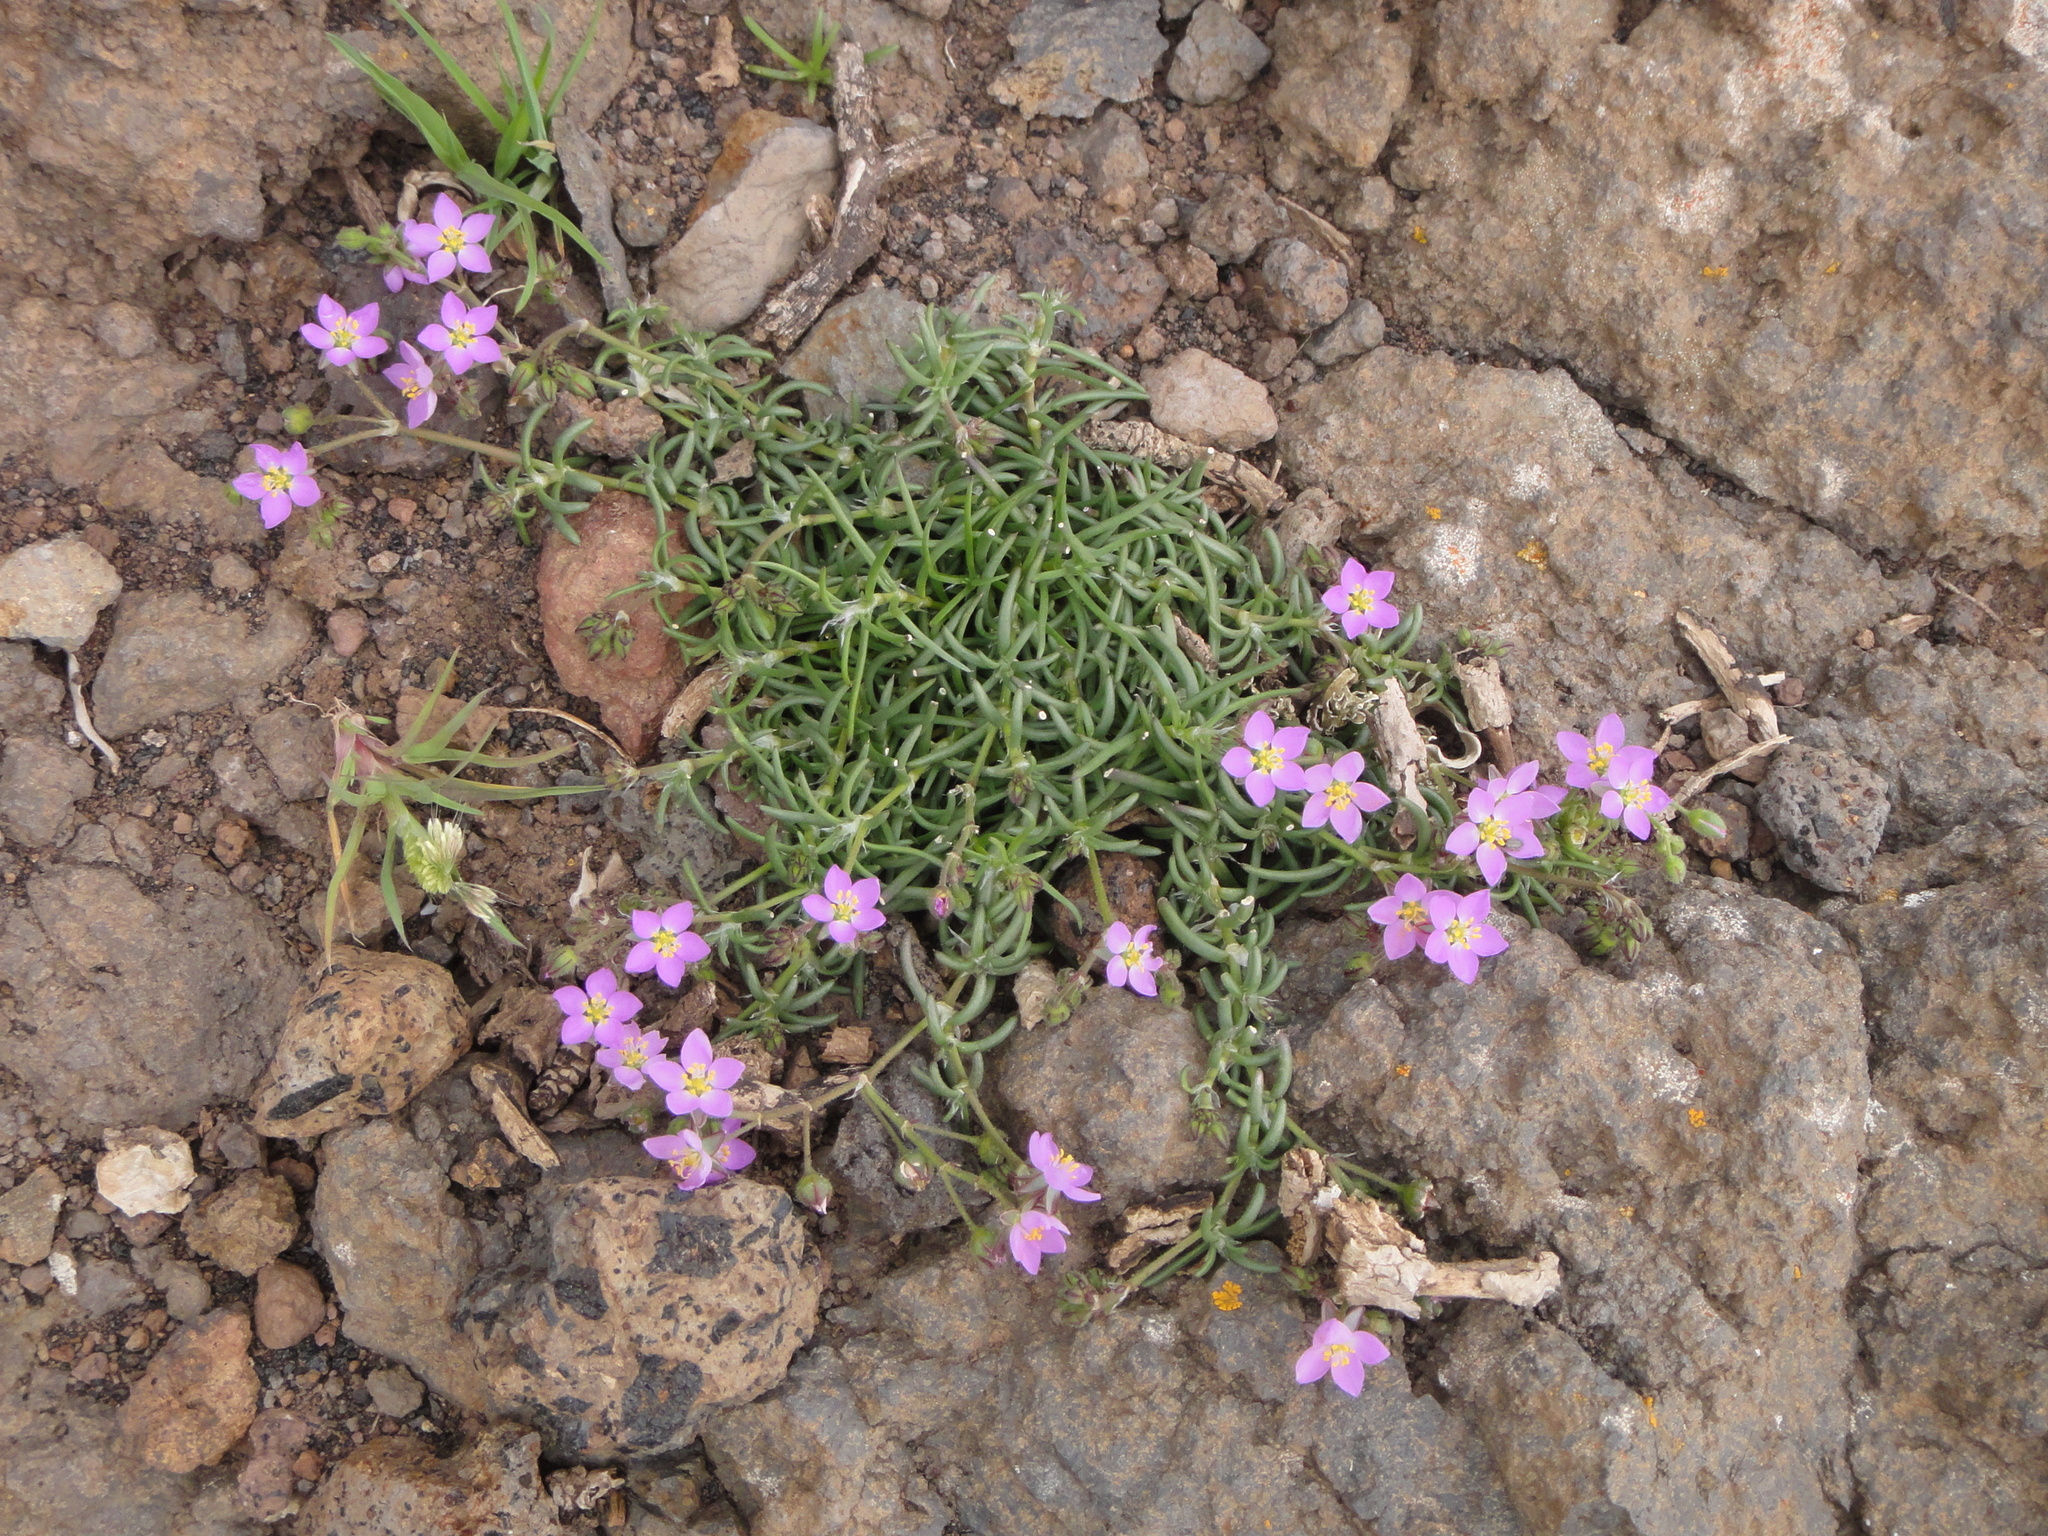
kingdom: Plantae
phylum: Tracheophyta
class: Magnoliopsida
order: Caryophyllales
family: Caryophyllaceae
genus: Spergularia
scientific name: Spergularia fimbriata
